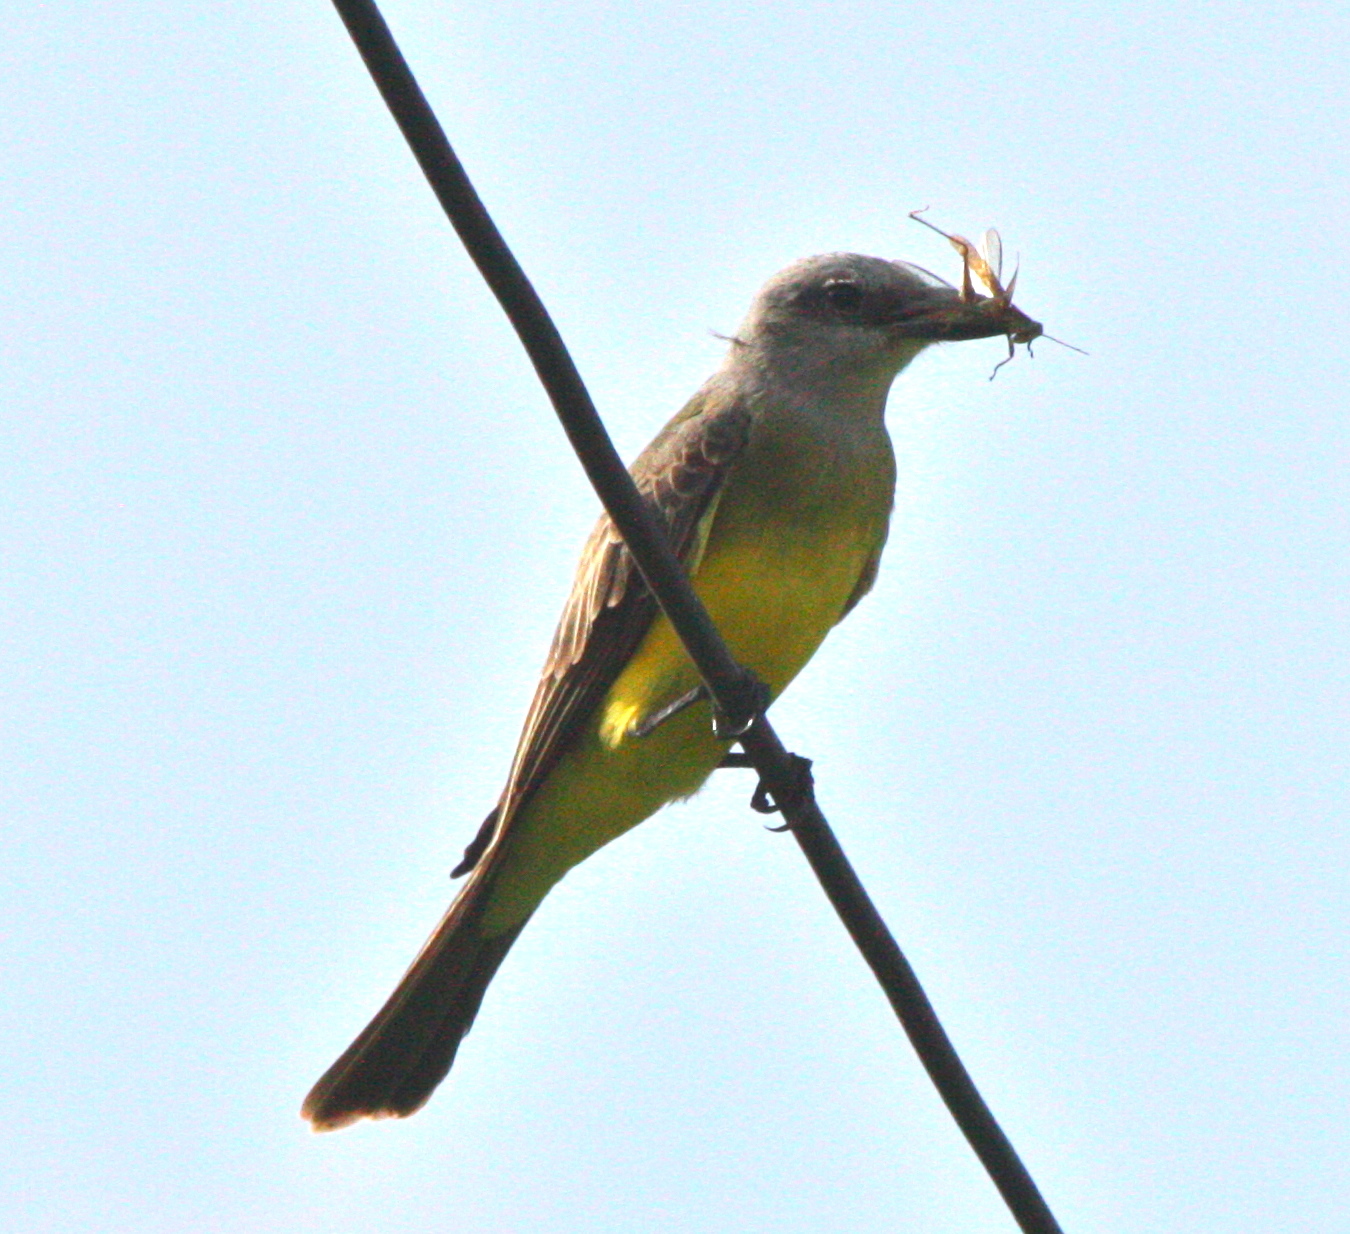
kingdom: Animalia
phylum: Chordata
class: Aves
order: Passeriformes
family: Tyrannidae
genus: Tyrannus
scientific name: Tyrannus melancholicus
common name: Tropical kingbird
